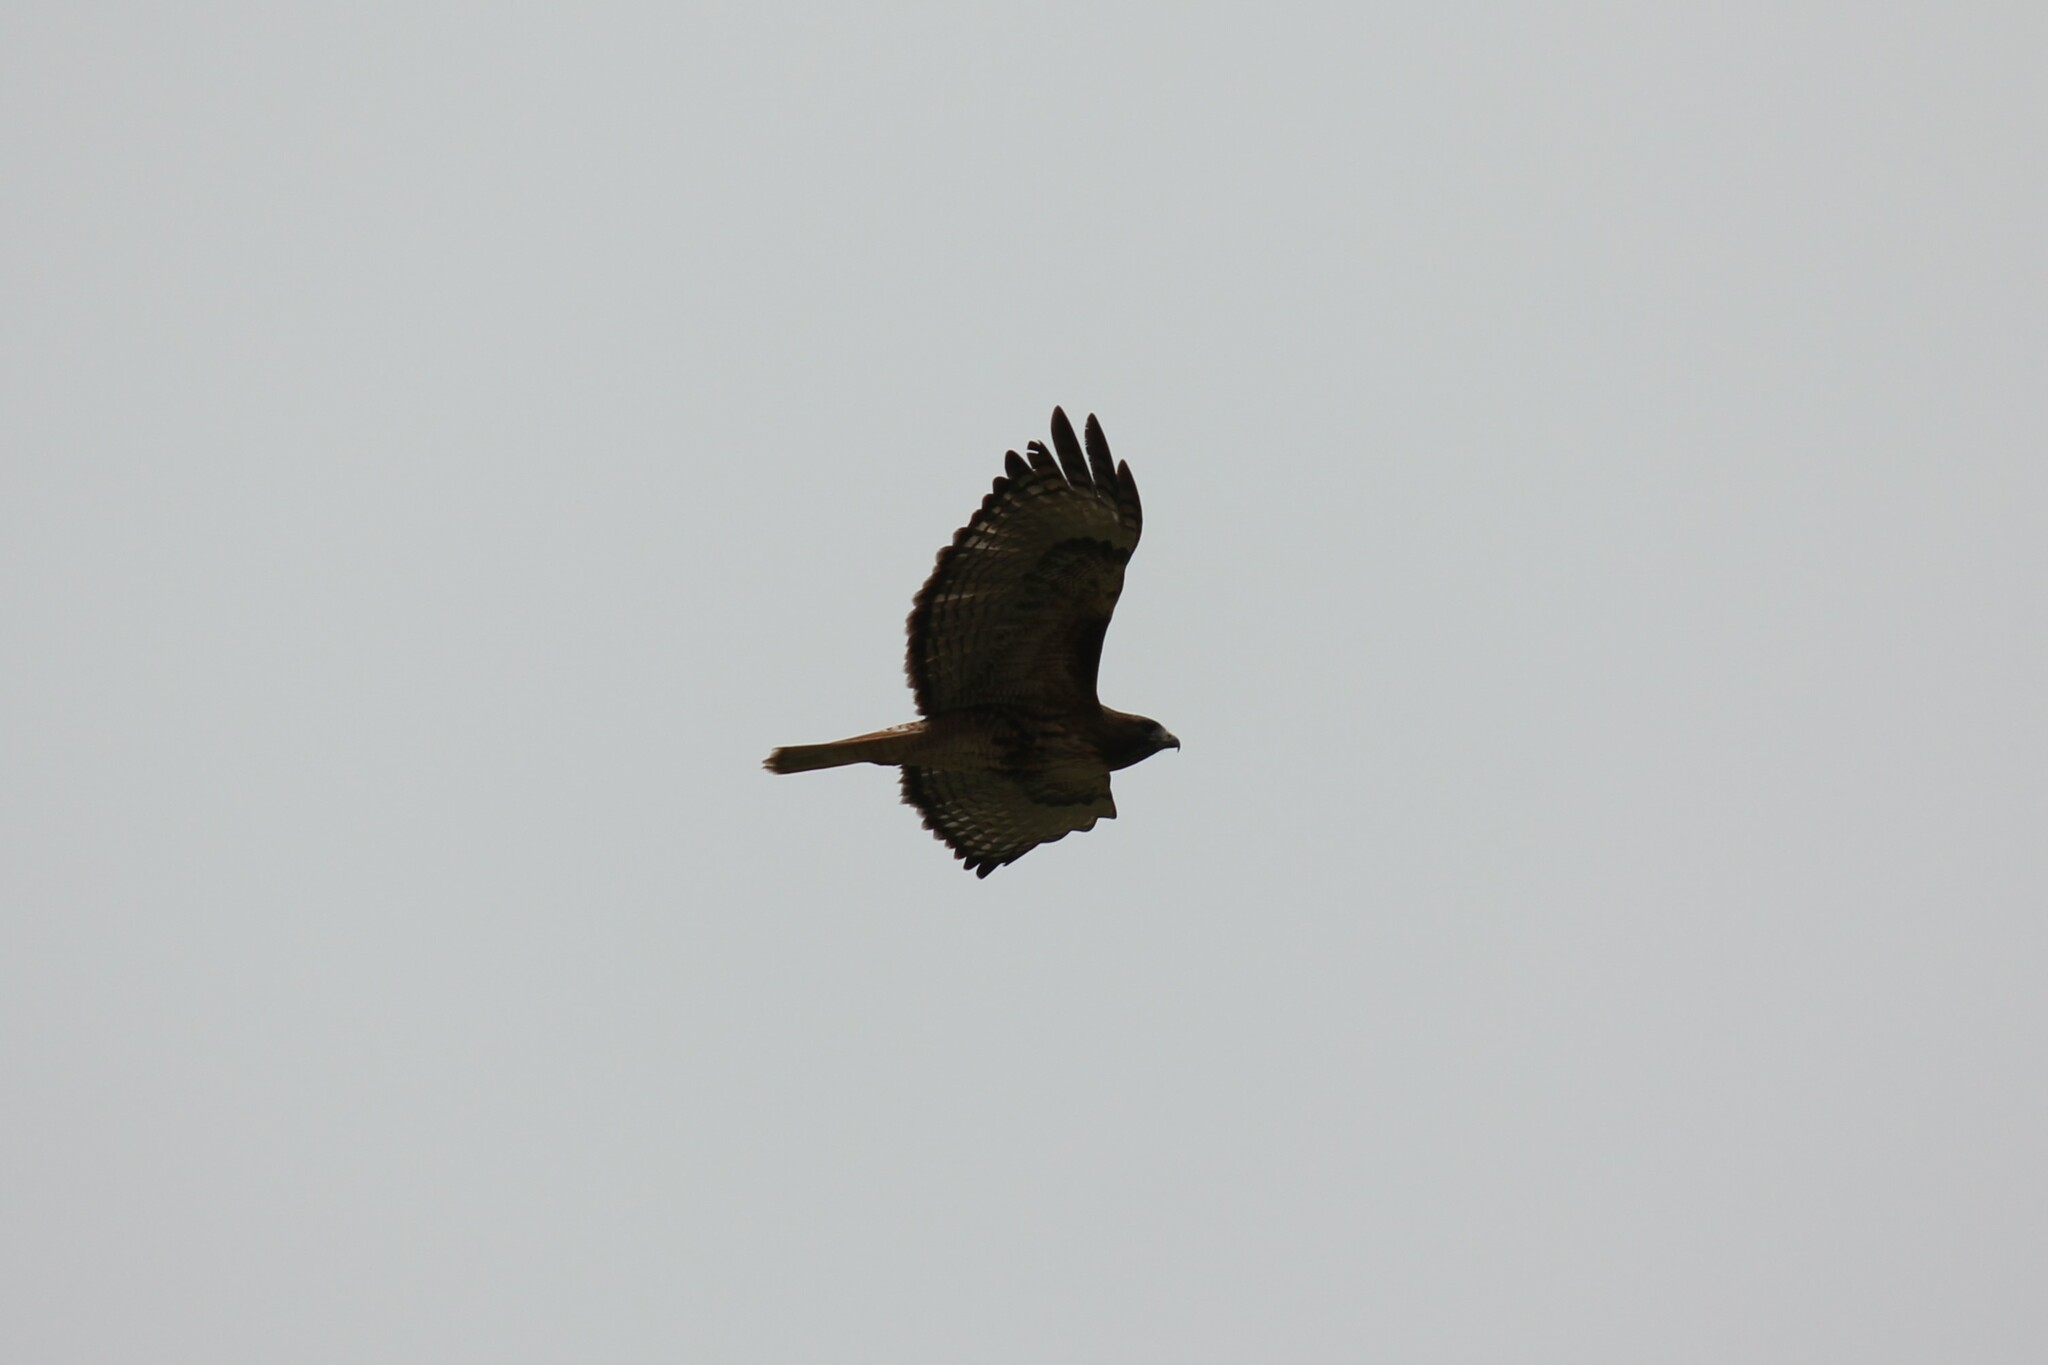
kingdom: Animalia
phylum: Chordata
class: Aves
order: Accipitriformes
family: Accipitridae
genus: Buteo
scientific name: Buteo jamaicensis
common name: Red-tailed hawk
